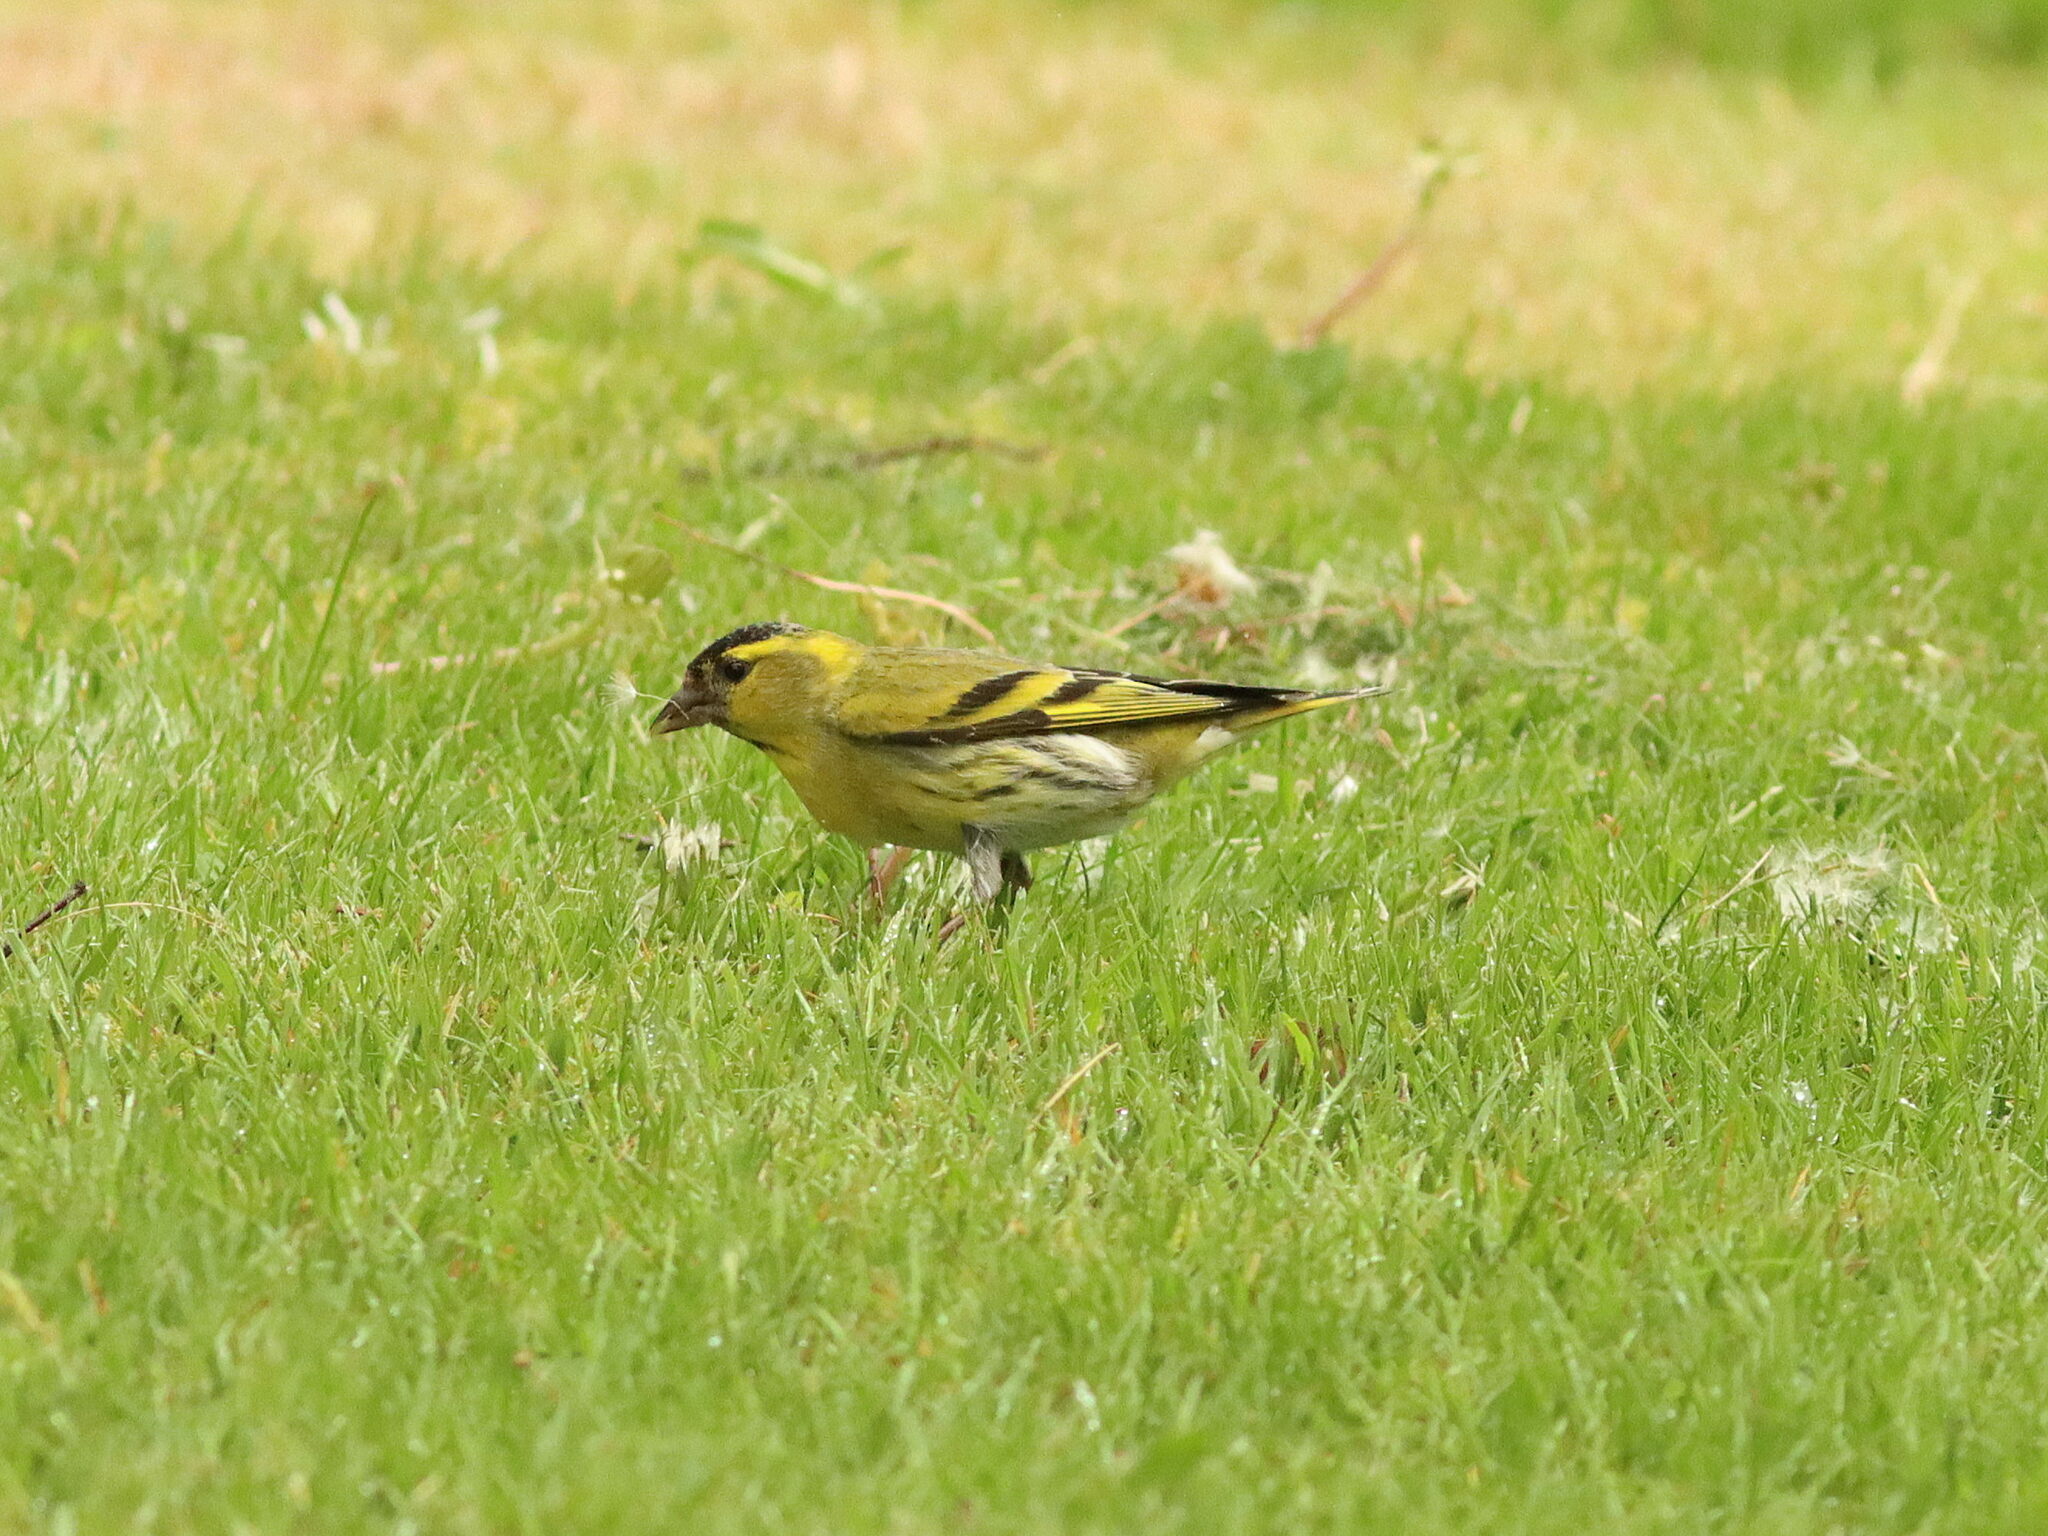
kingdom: Animalia
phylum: Chordata
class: Aves
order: Passeriformes
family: Fringillidae
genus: Spinus
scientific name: Spinus spinus
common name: Eurasian siskin
